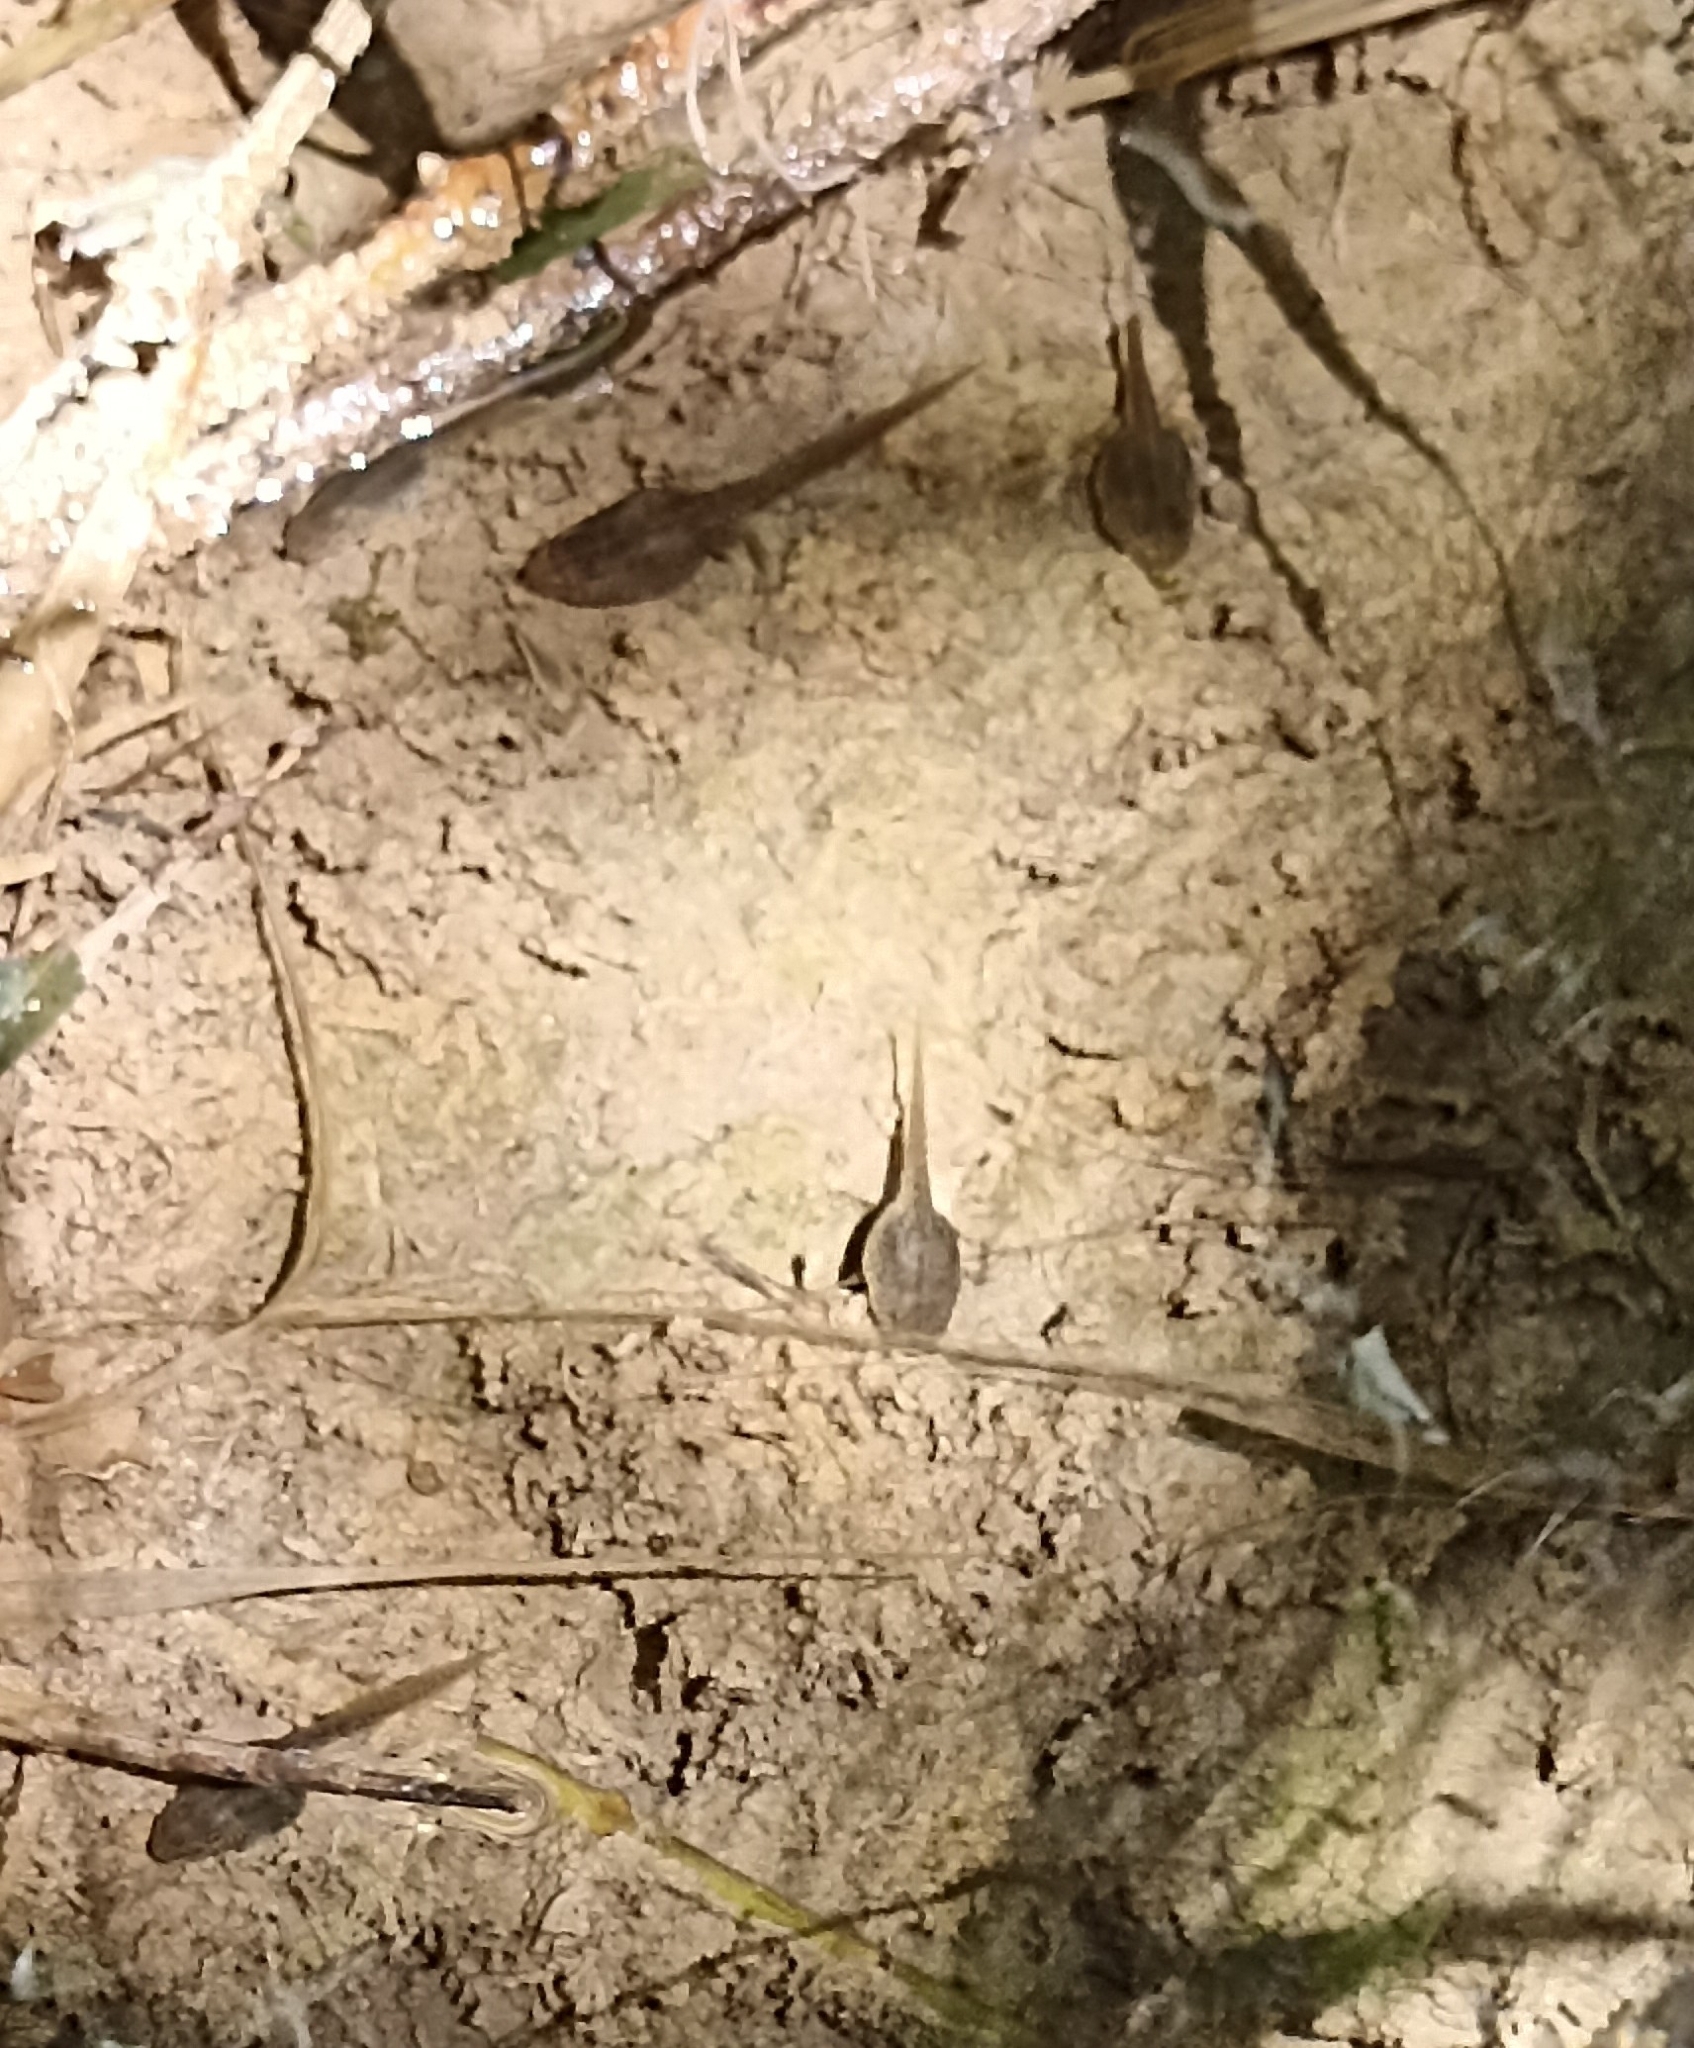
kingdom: Animalia
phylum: Chordata
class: Amphibia
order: Anura
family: Bombinatoridae
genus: Bombina
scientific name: Bombina variegata
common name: Yellow-bellied toad
